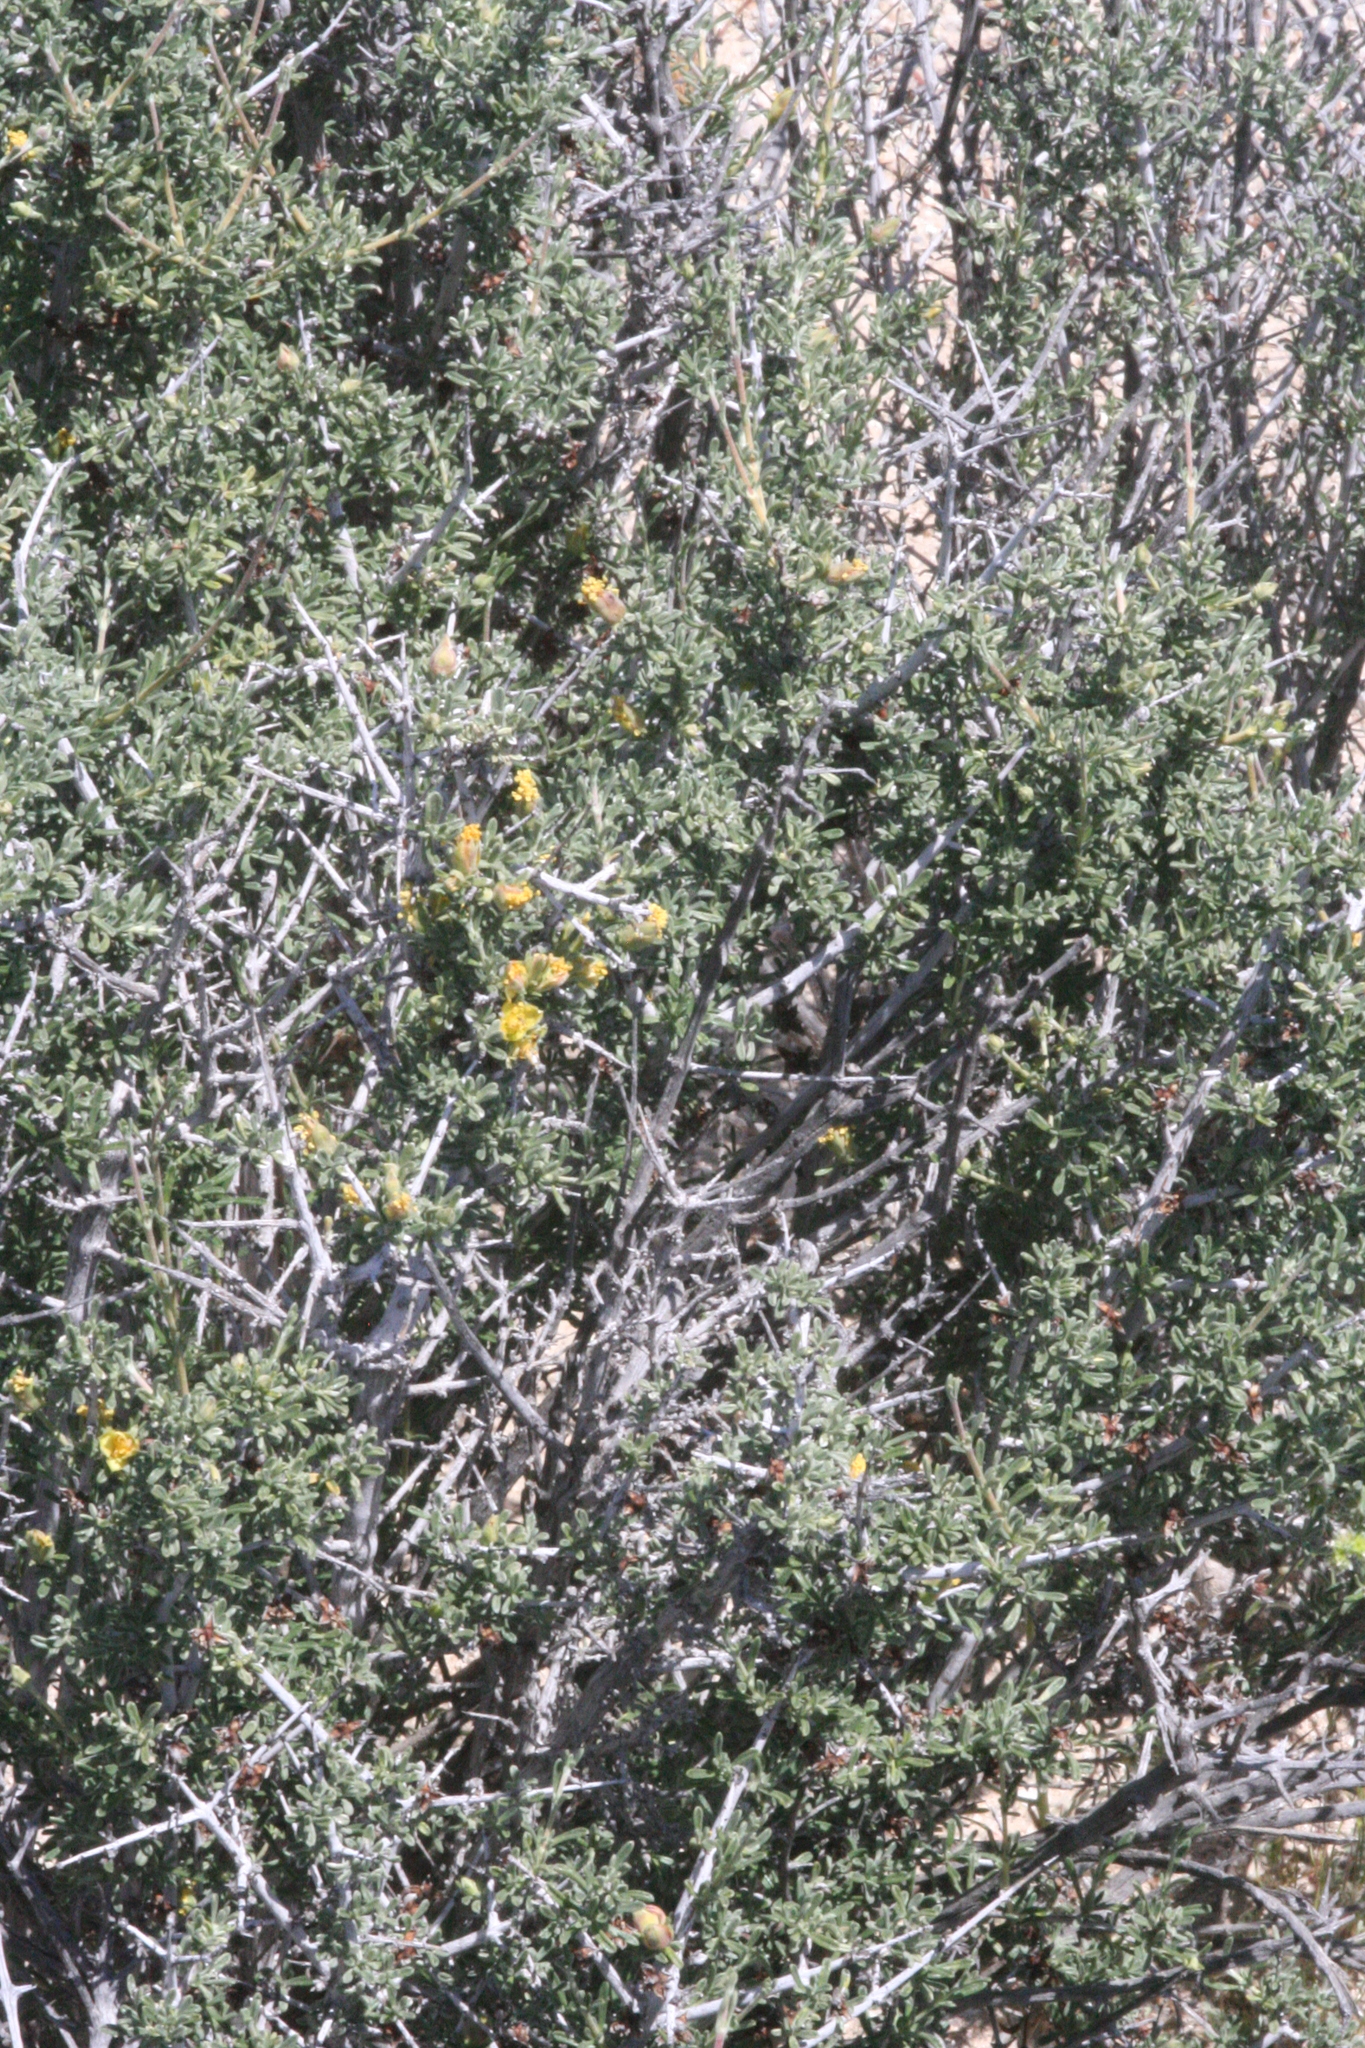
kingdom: Plantae
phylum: Tracheophyta
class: Magnoliopsida
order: Rosales
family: Rosaceae
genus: Coleogyne
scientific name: Coleogyne ramosissima
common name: Blackbrush
